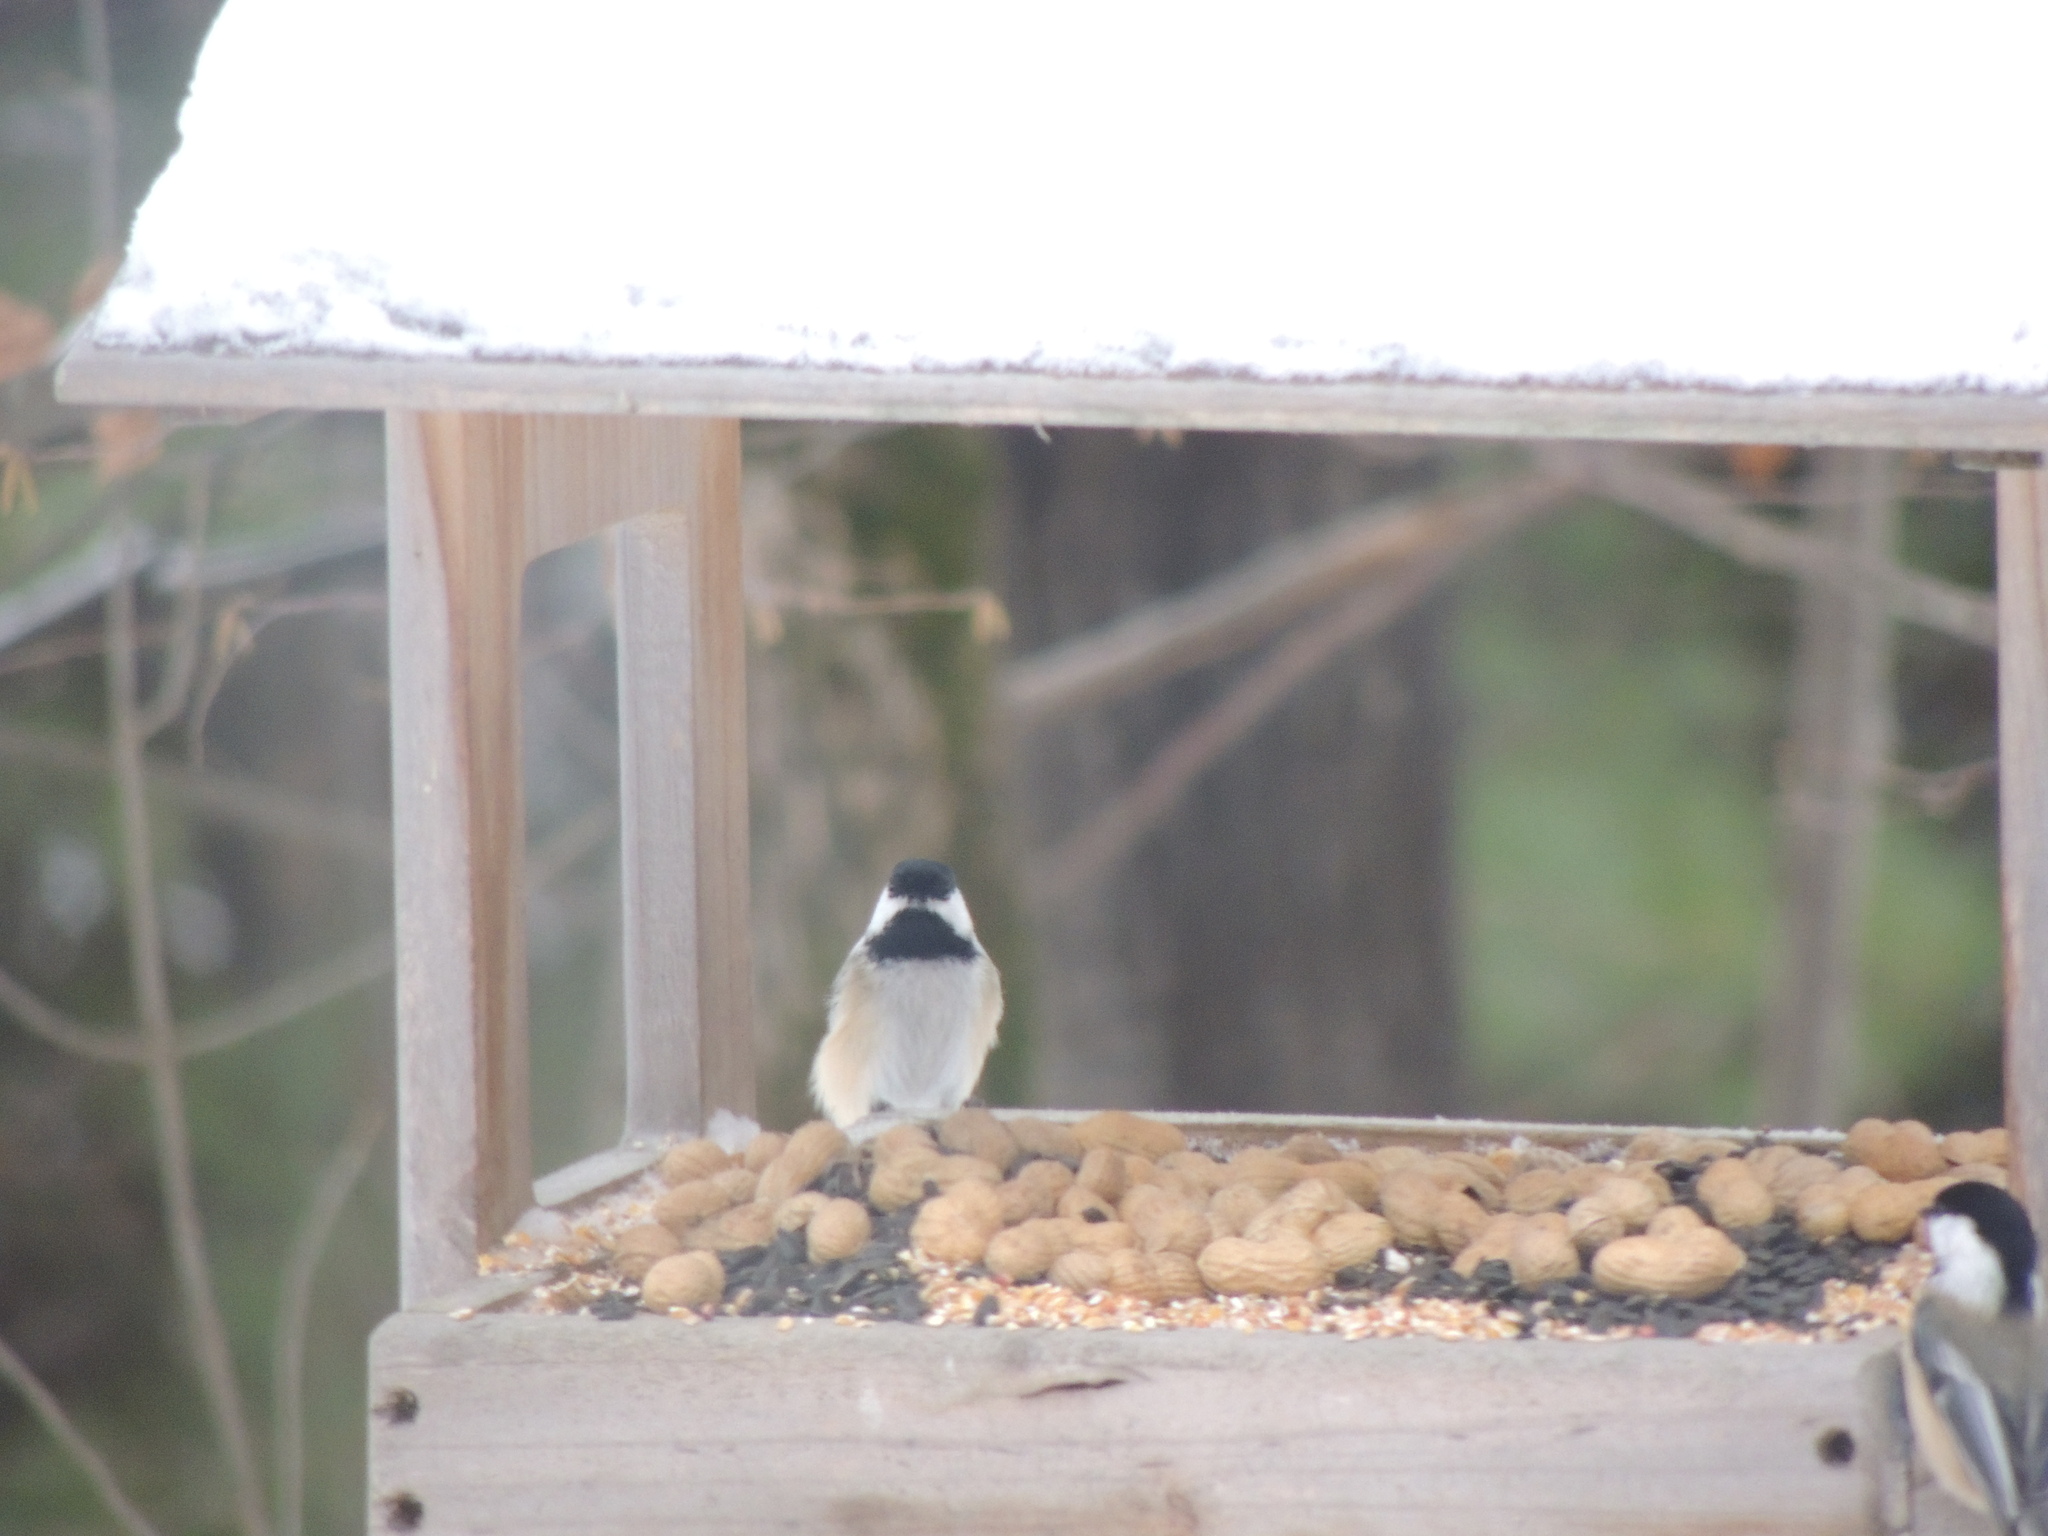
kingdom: Animalia
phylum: Chordata
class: Aves
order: Passeriformes
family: Paridae
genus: Poecile
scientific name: Poecile atricapillus
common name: Black-capped chickadee
